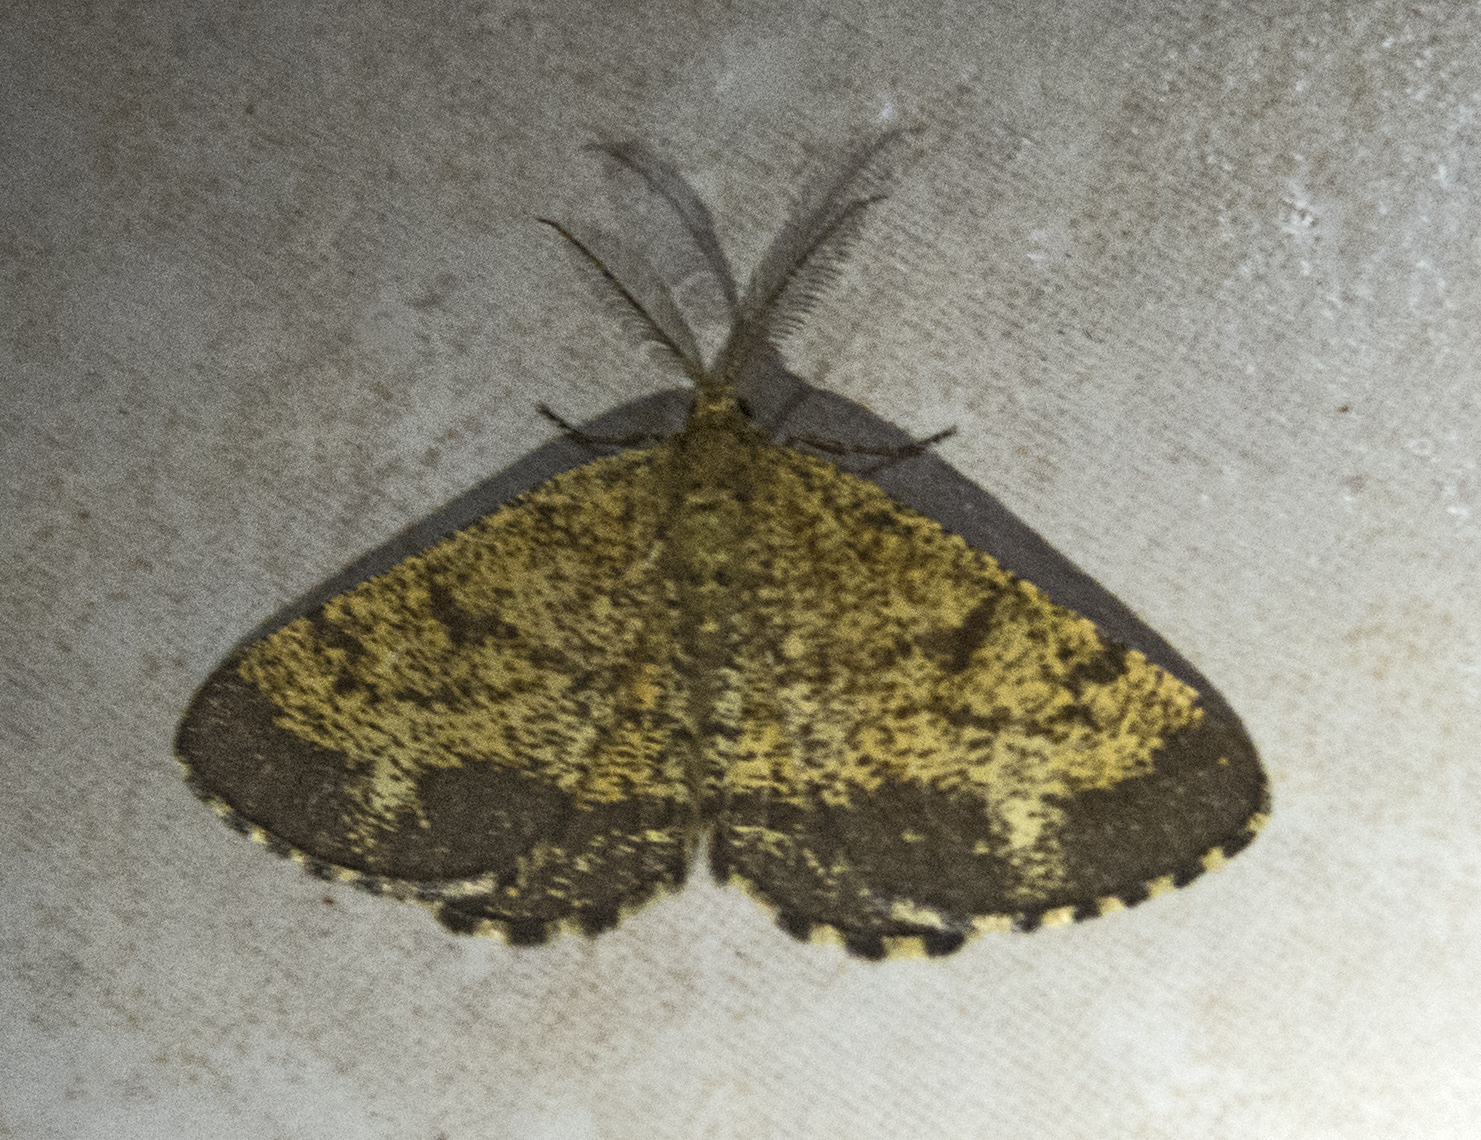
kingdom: Animalia
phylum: Arthropoda
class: Insecta
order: Lepidoptera
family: Geometridae
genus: Ematurga
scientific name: Ematurga atomaria
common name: Common heath
